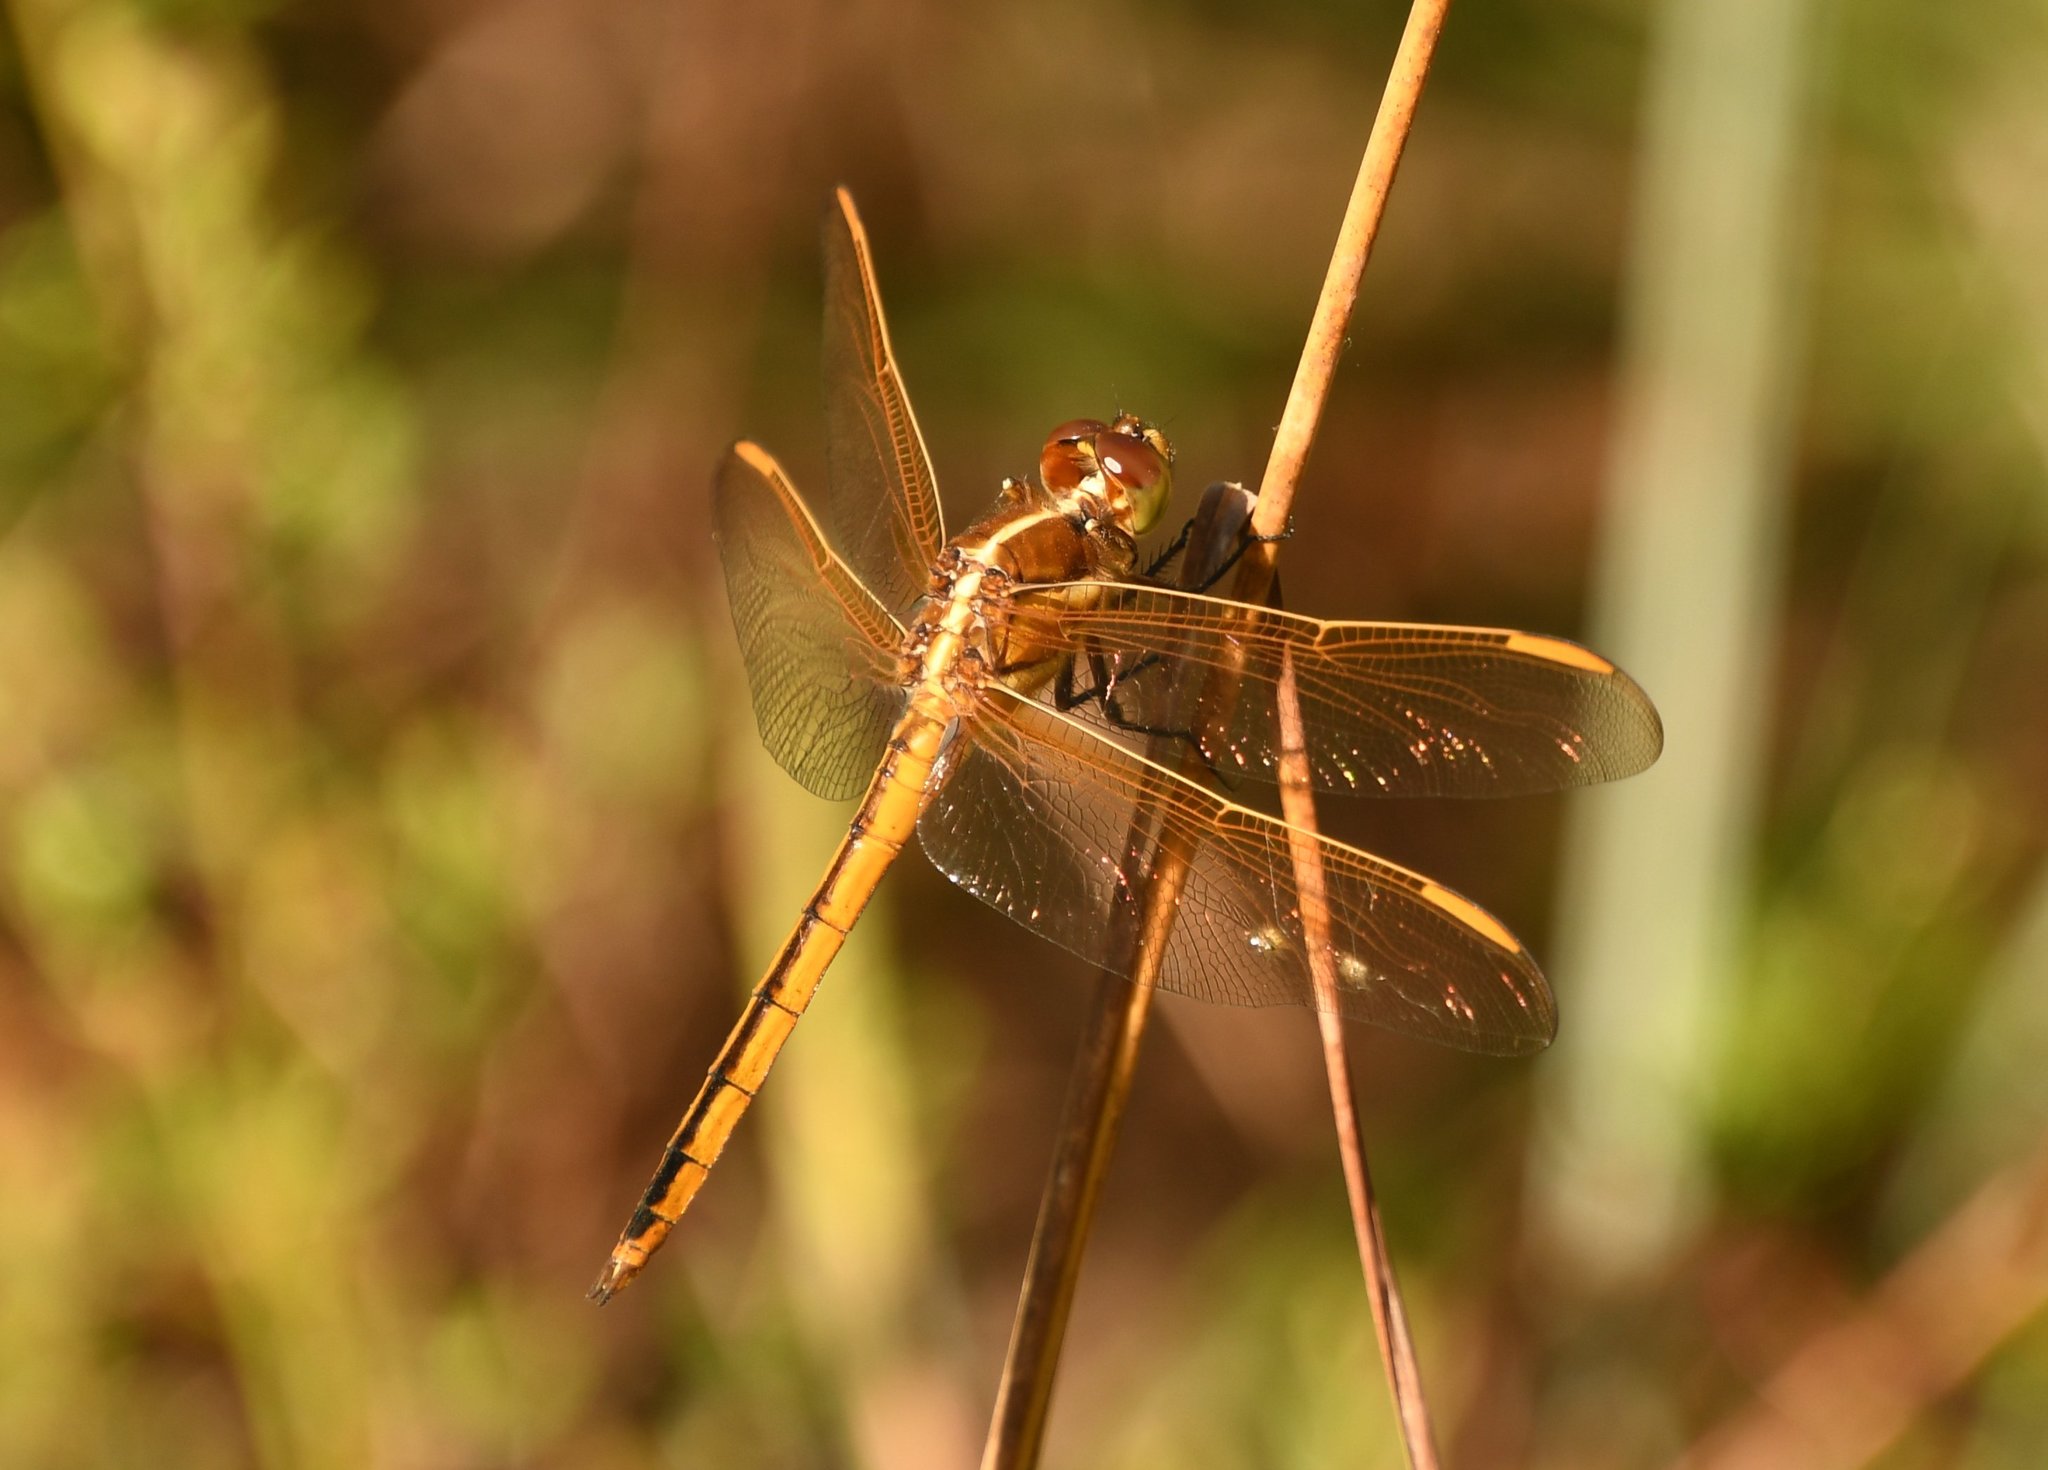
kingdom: Animalia
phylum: Arthropoda
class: Insecta
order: Odonata
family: Libellulidae
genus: Libellula
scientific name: Libellula auripennis
